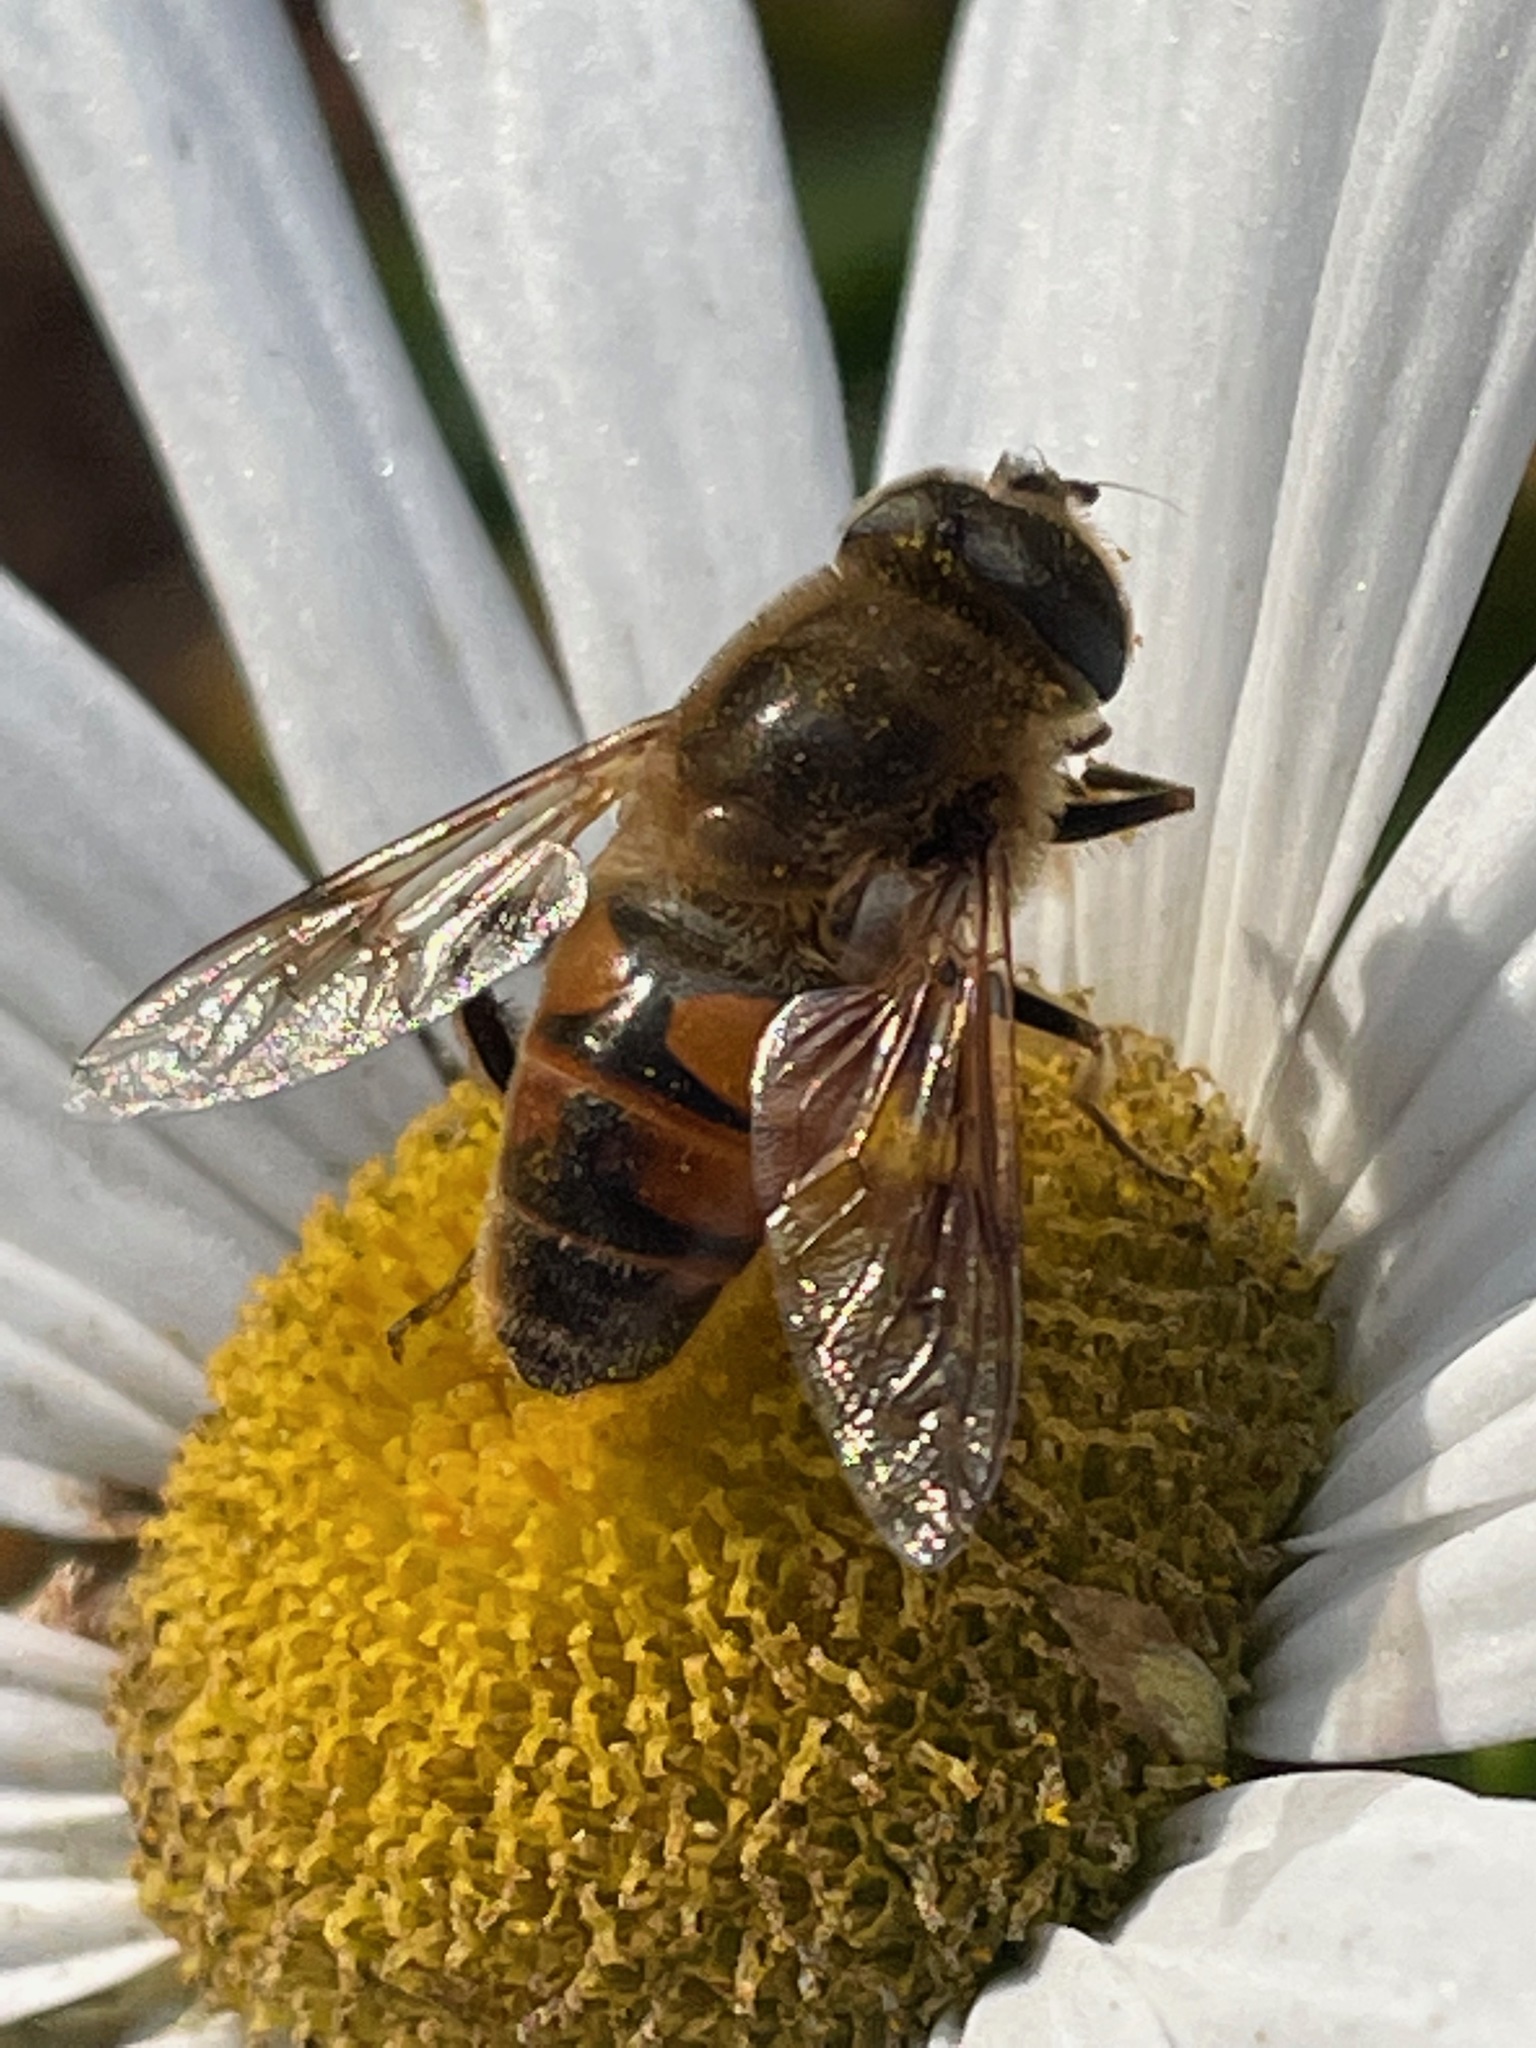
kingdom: Animalia
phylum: Arthropoda
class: Insecta
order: Diptera
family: Syrphidae
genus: Eristalis
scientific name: Eristalis tenax
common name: Drone fly
